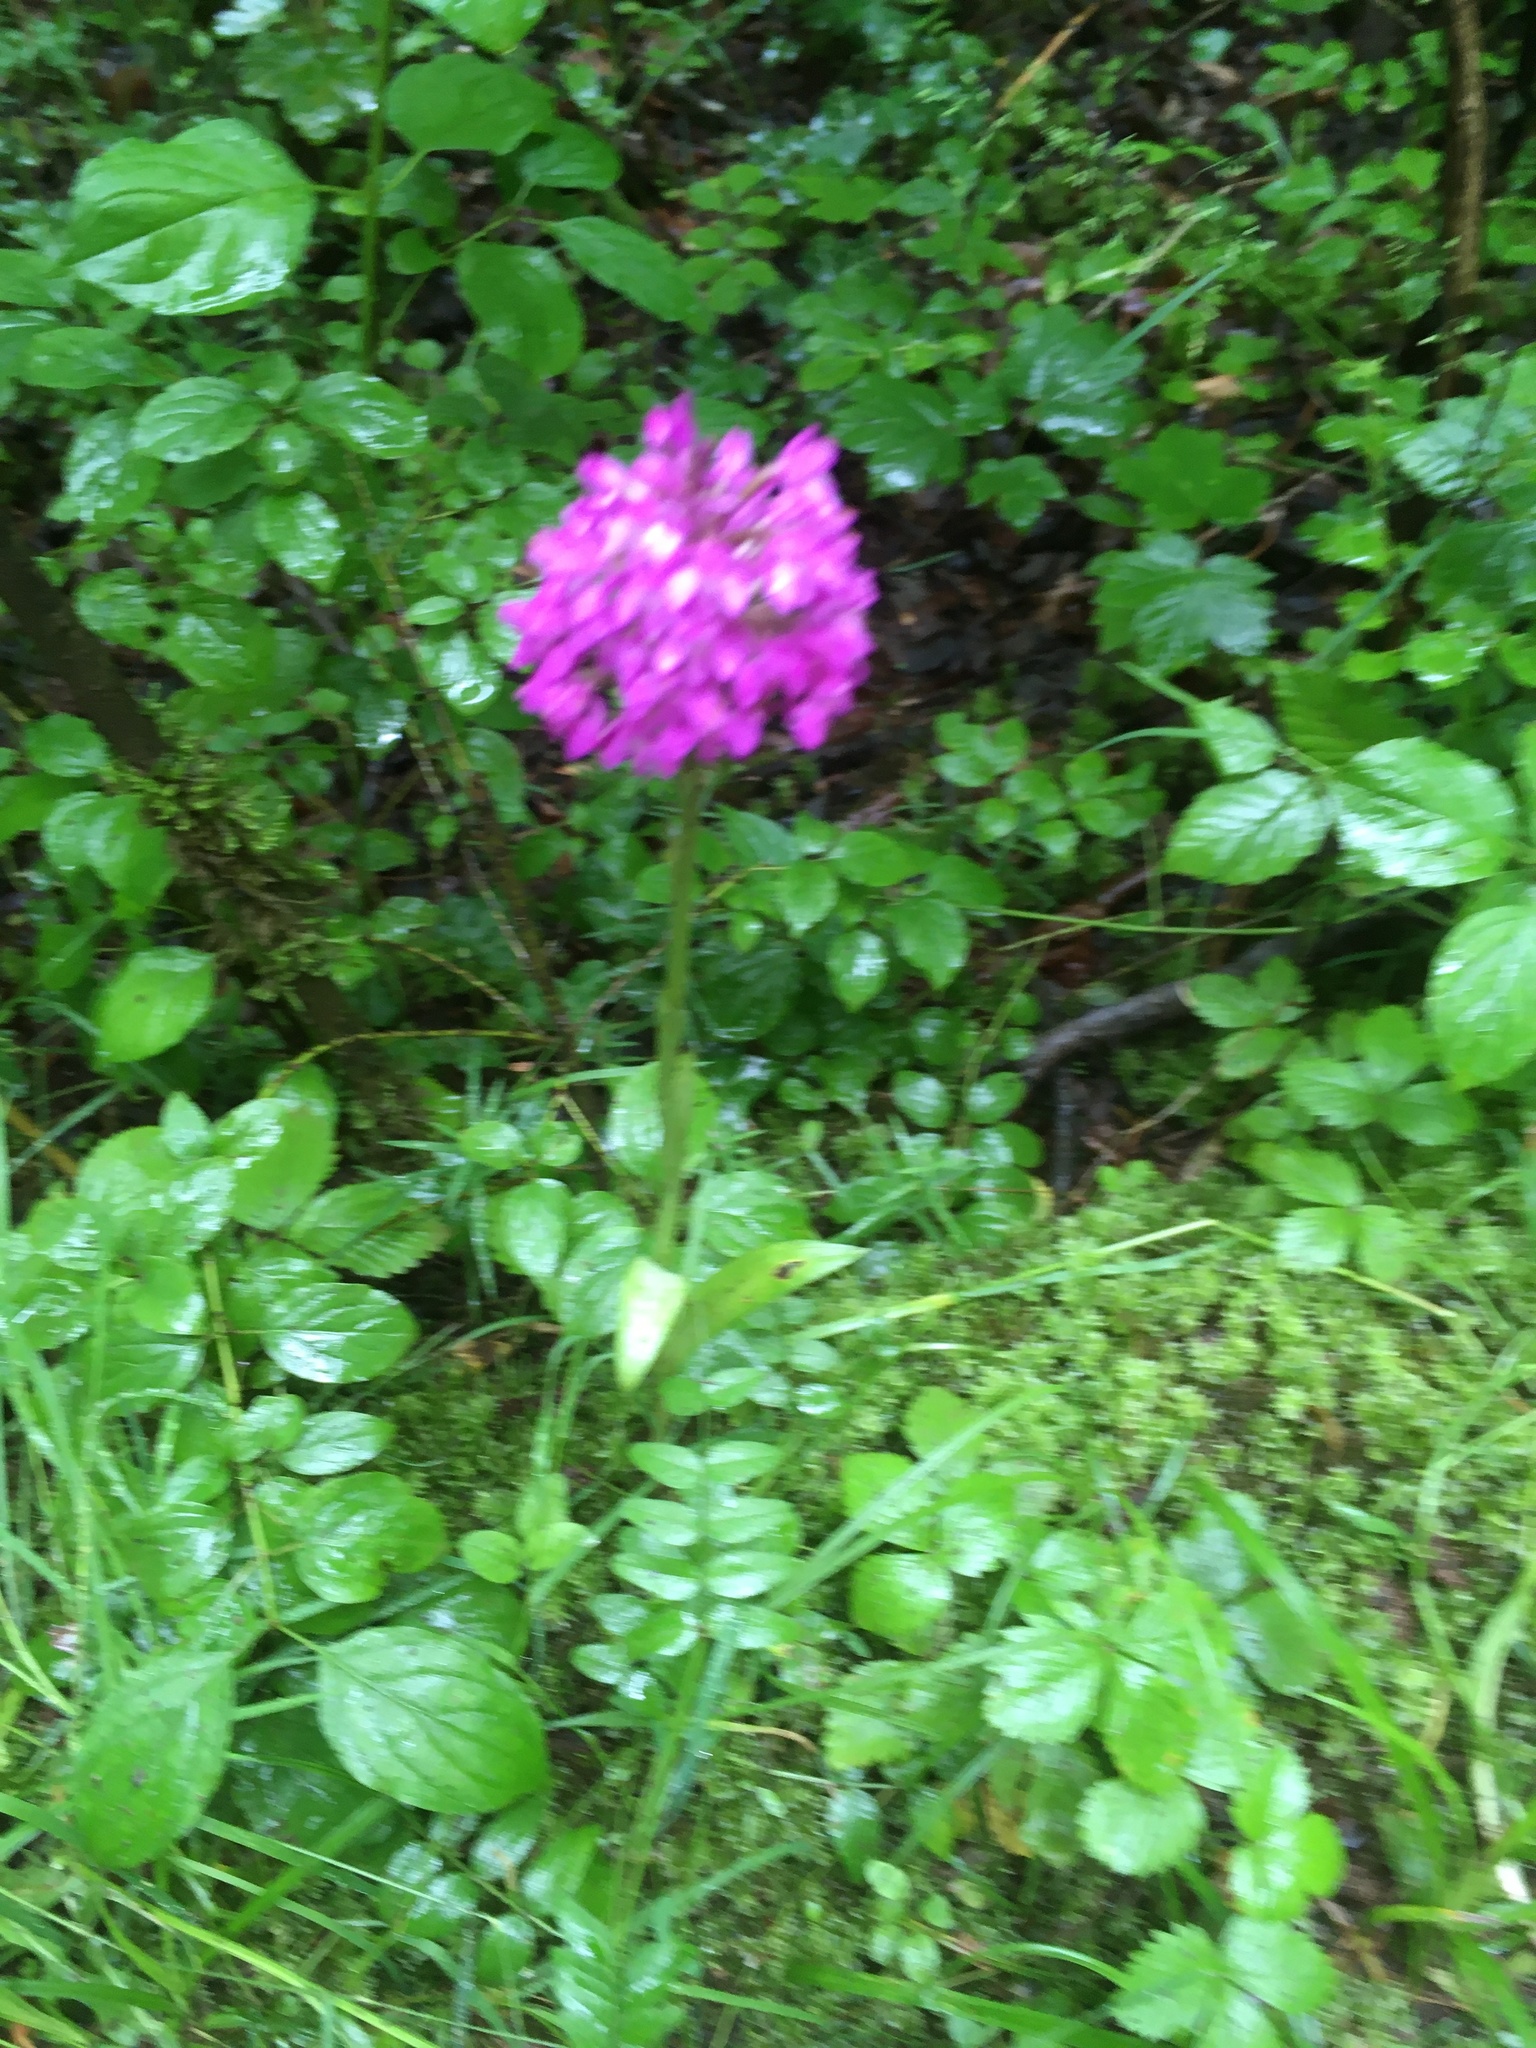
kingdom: Plantae
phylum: Tracheophyta
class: Liliopsida
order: Asparagales
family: Orchidaceae
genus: Anacamptis
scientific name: Anacamptis pyramidalis
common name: Pyramidal orchid
